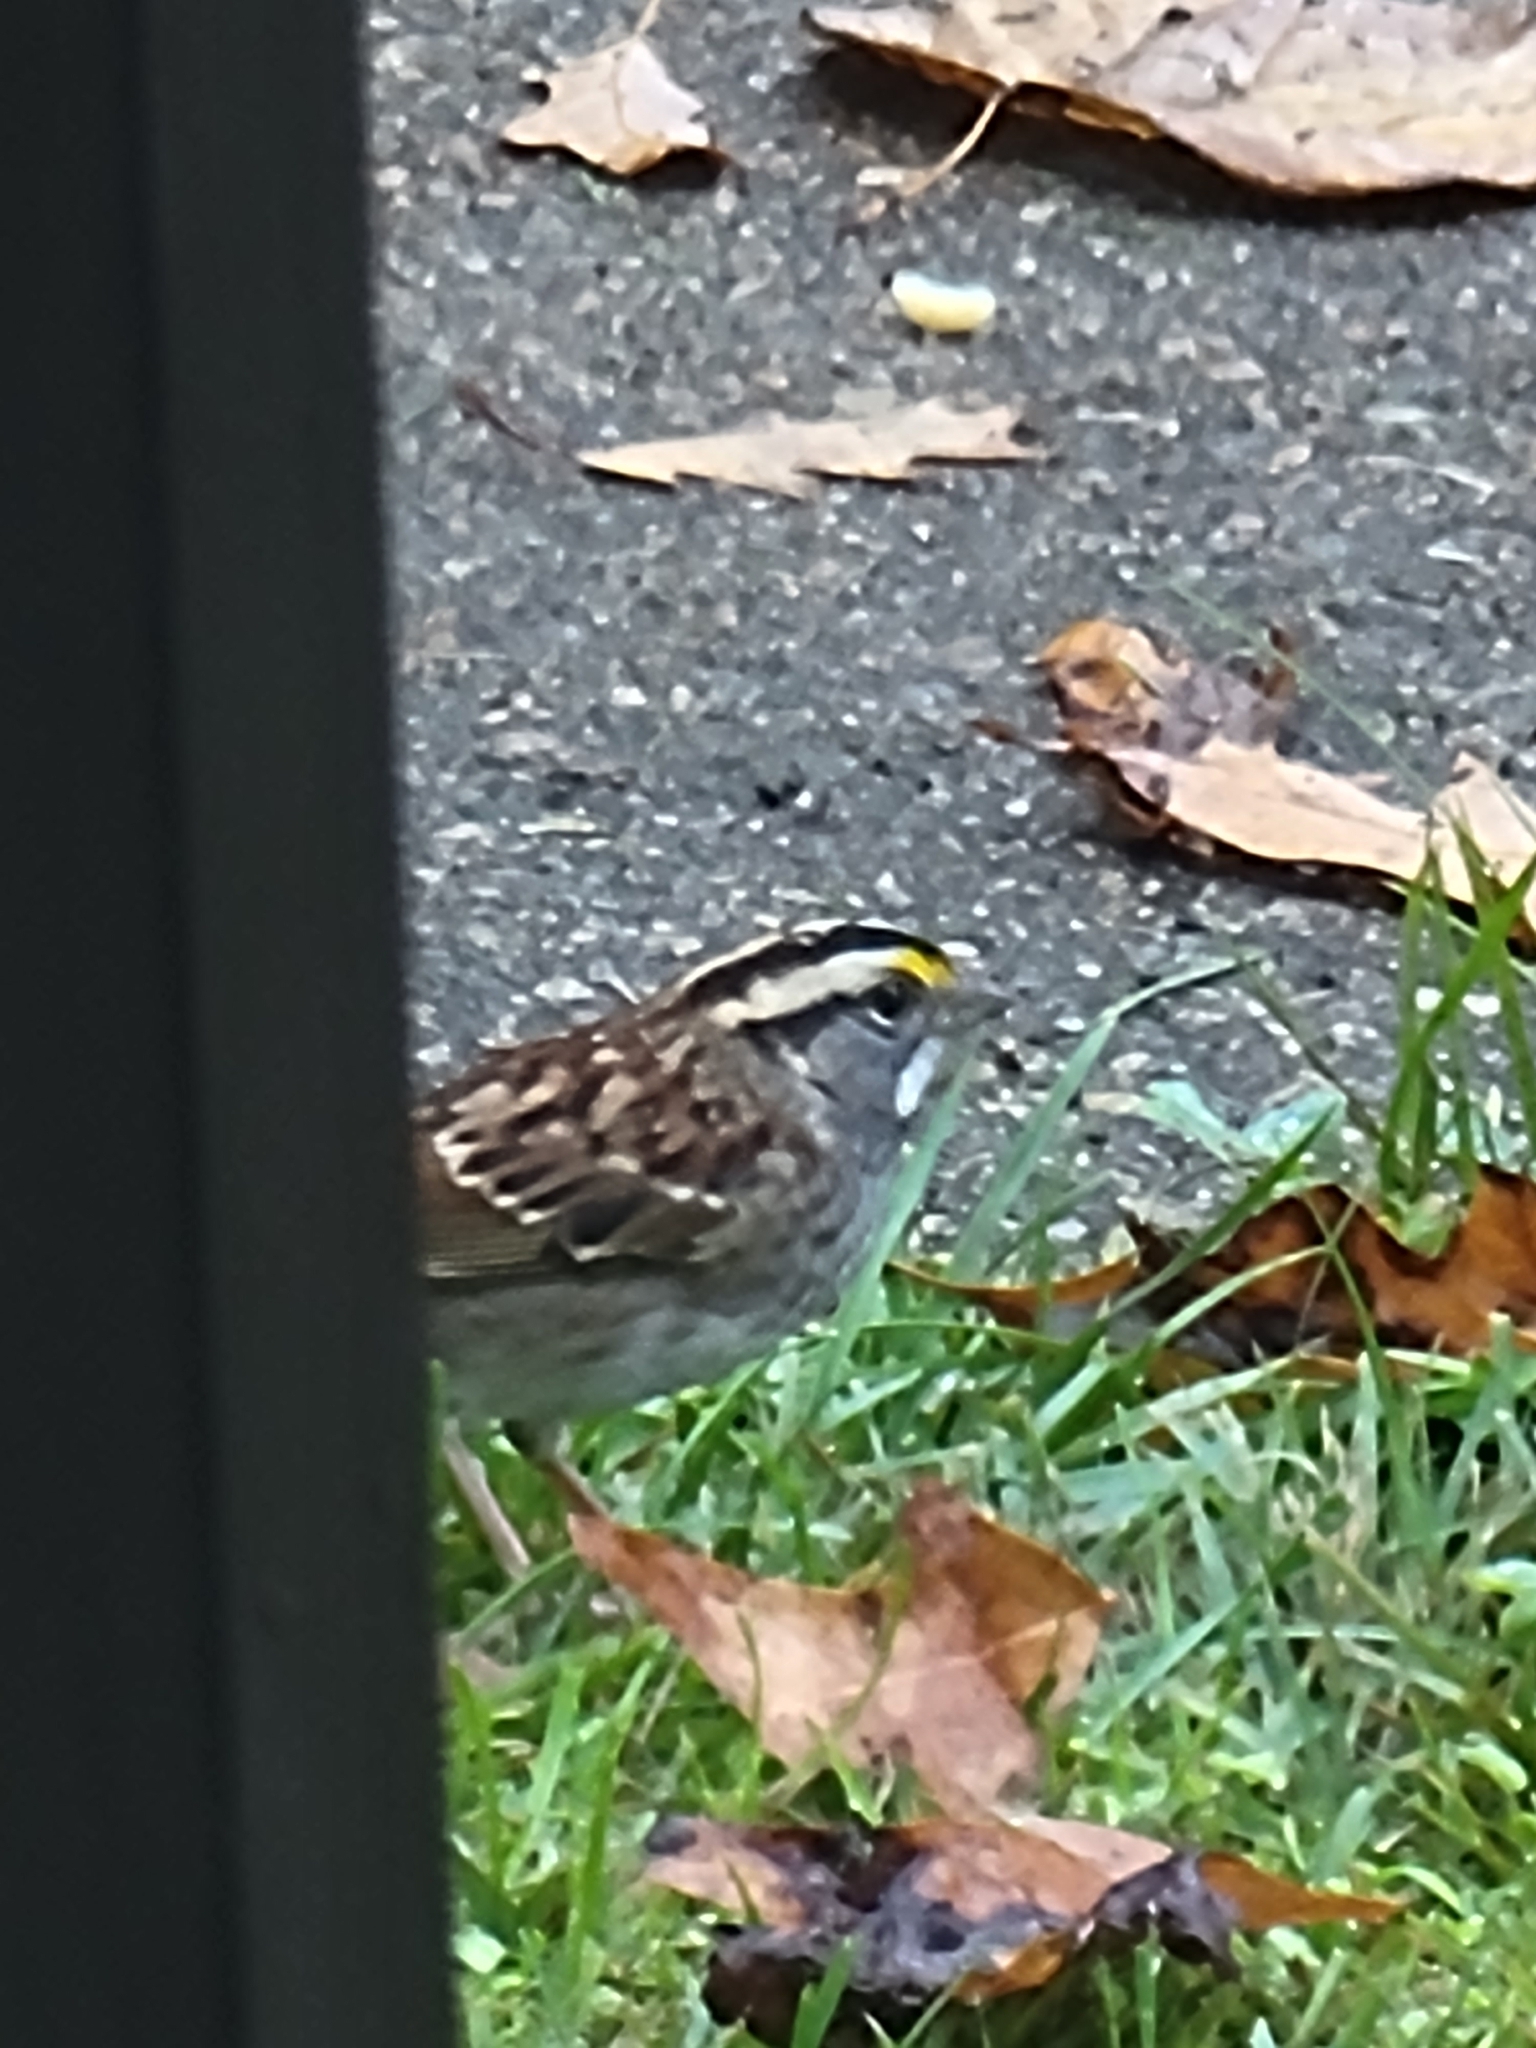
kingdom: Animalia
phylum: Chordata
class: Aves
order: Passeriformes
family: Passerellidae
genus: Zonotrichia
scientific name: Zonotrichia albicollis
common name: White-throated sparrow
